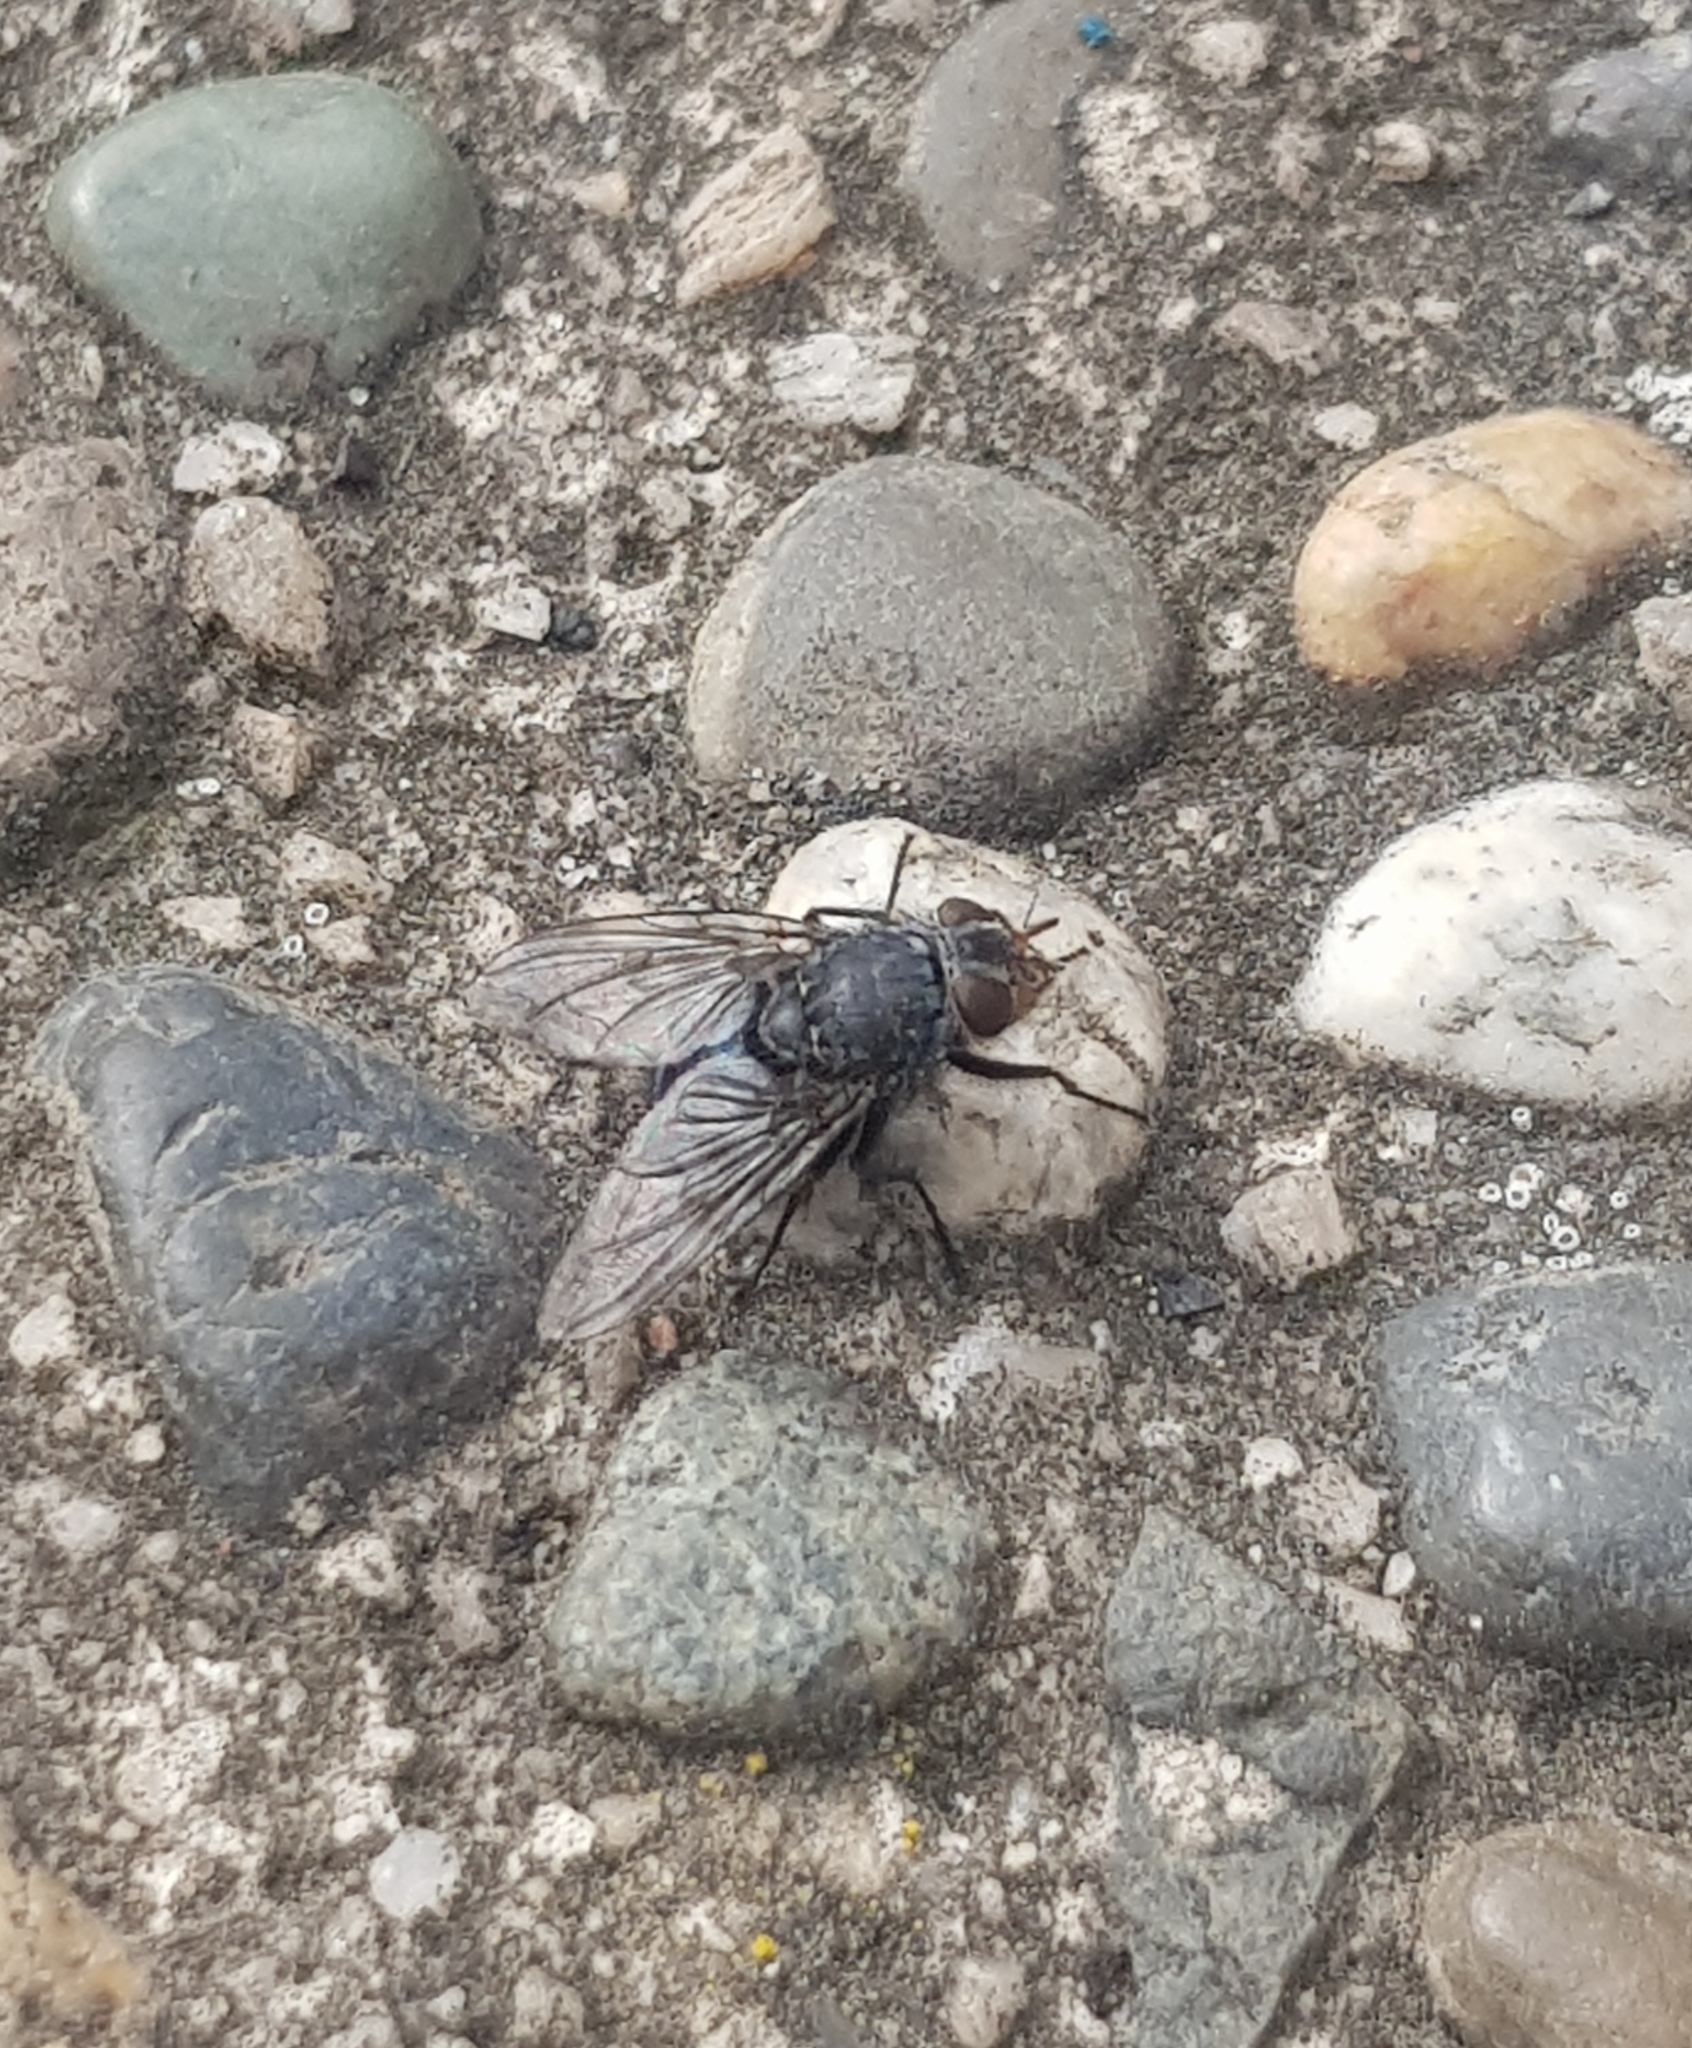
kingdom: Animalia
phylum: Arthropoda
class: Insecta
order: Diptera
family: Calliphoridae
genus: Calliphora
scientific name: Calliphora vicina
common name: Common blow flie
